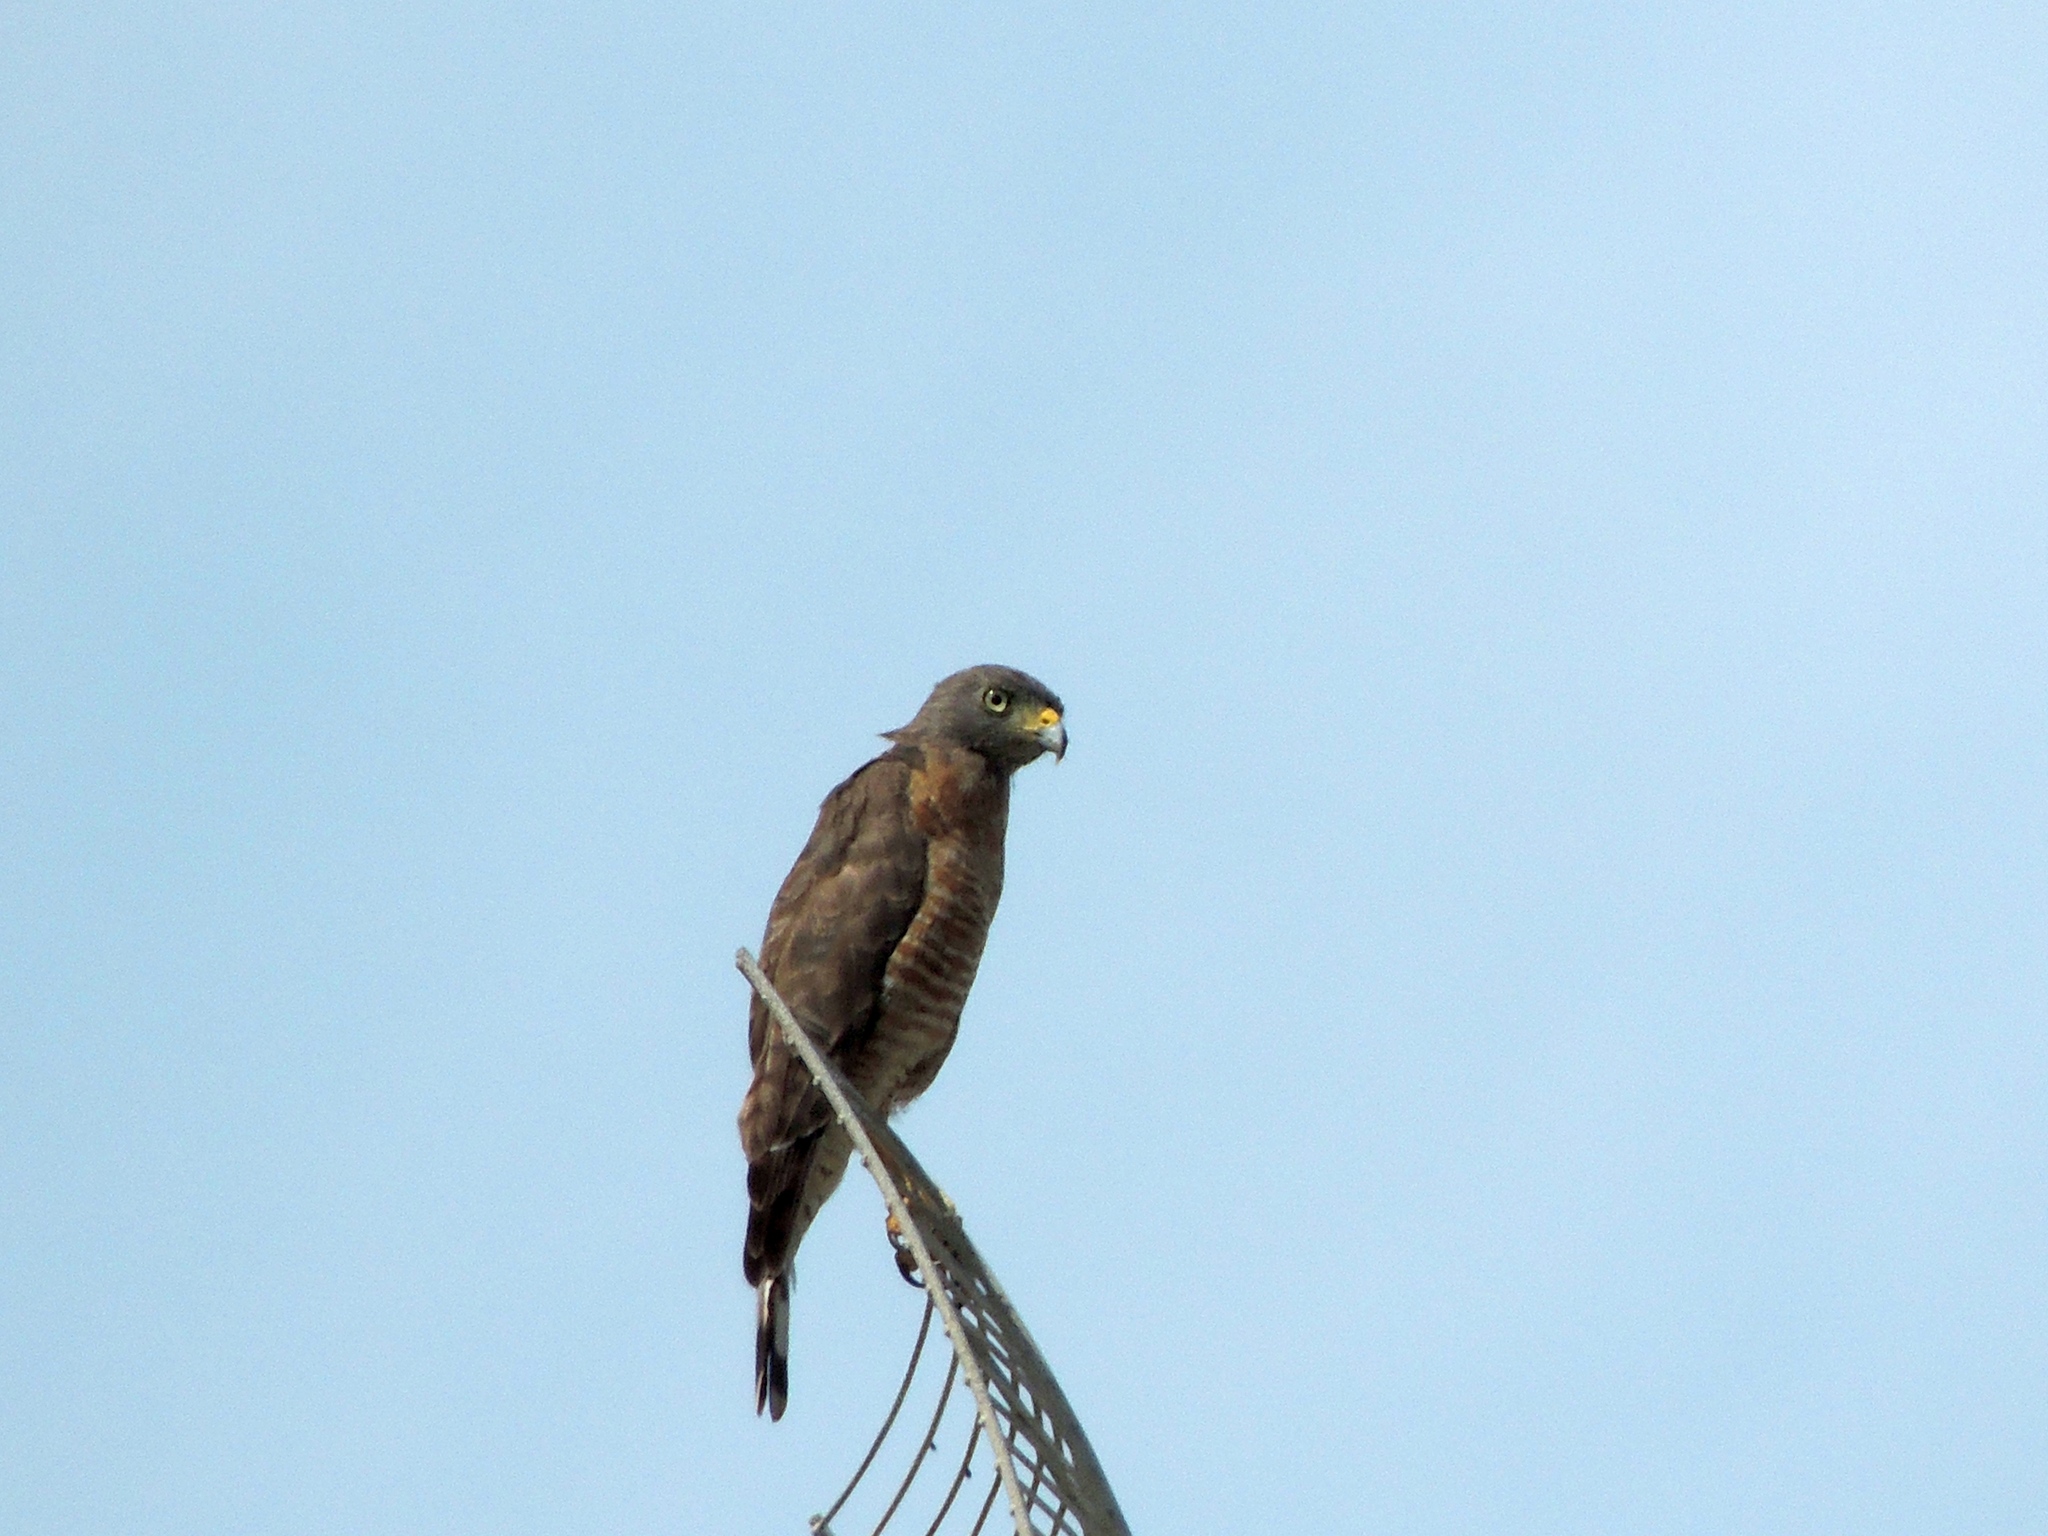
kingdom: Animalia
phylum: Chordata
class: Aves
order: Accipitriformes
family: Accipitridae
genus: Rupornis
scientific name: Rupornis magnirostris
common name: Roadside hawk
